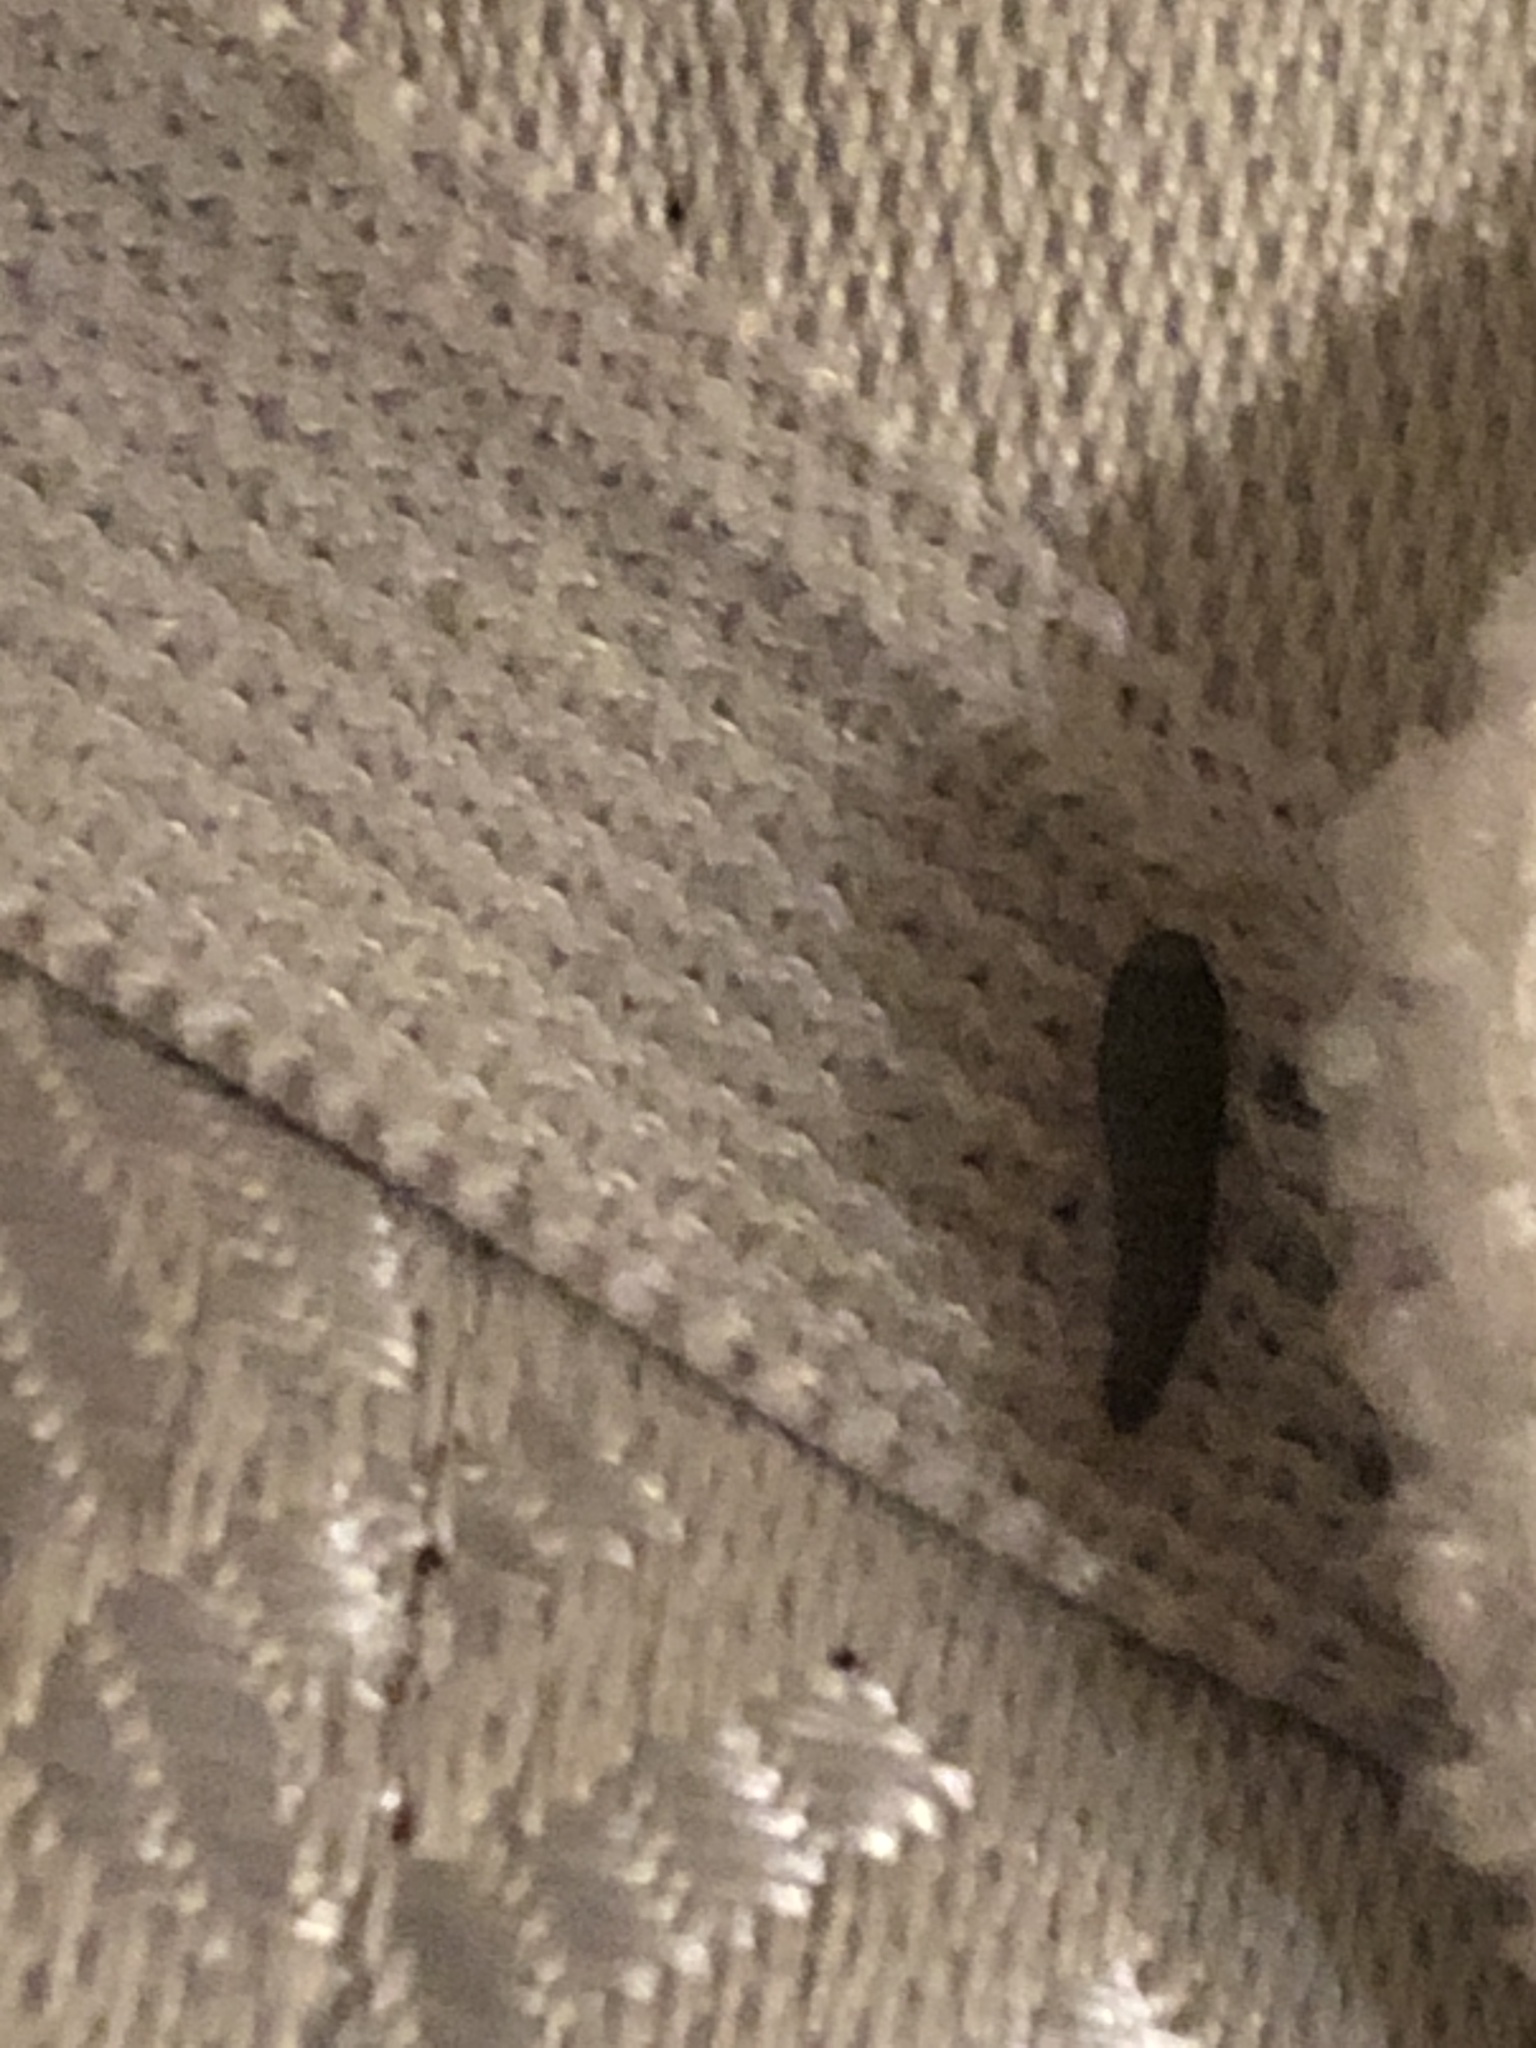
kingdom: Animalia
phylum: Arthropoda
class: Insecta
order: Zygentoma
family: Lepismatidae
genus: Lepisma
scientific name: Lepisma saccharinum
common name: Silverfish
